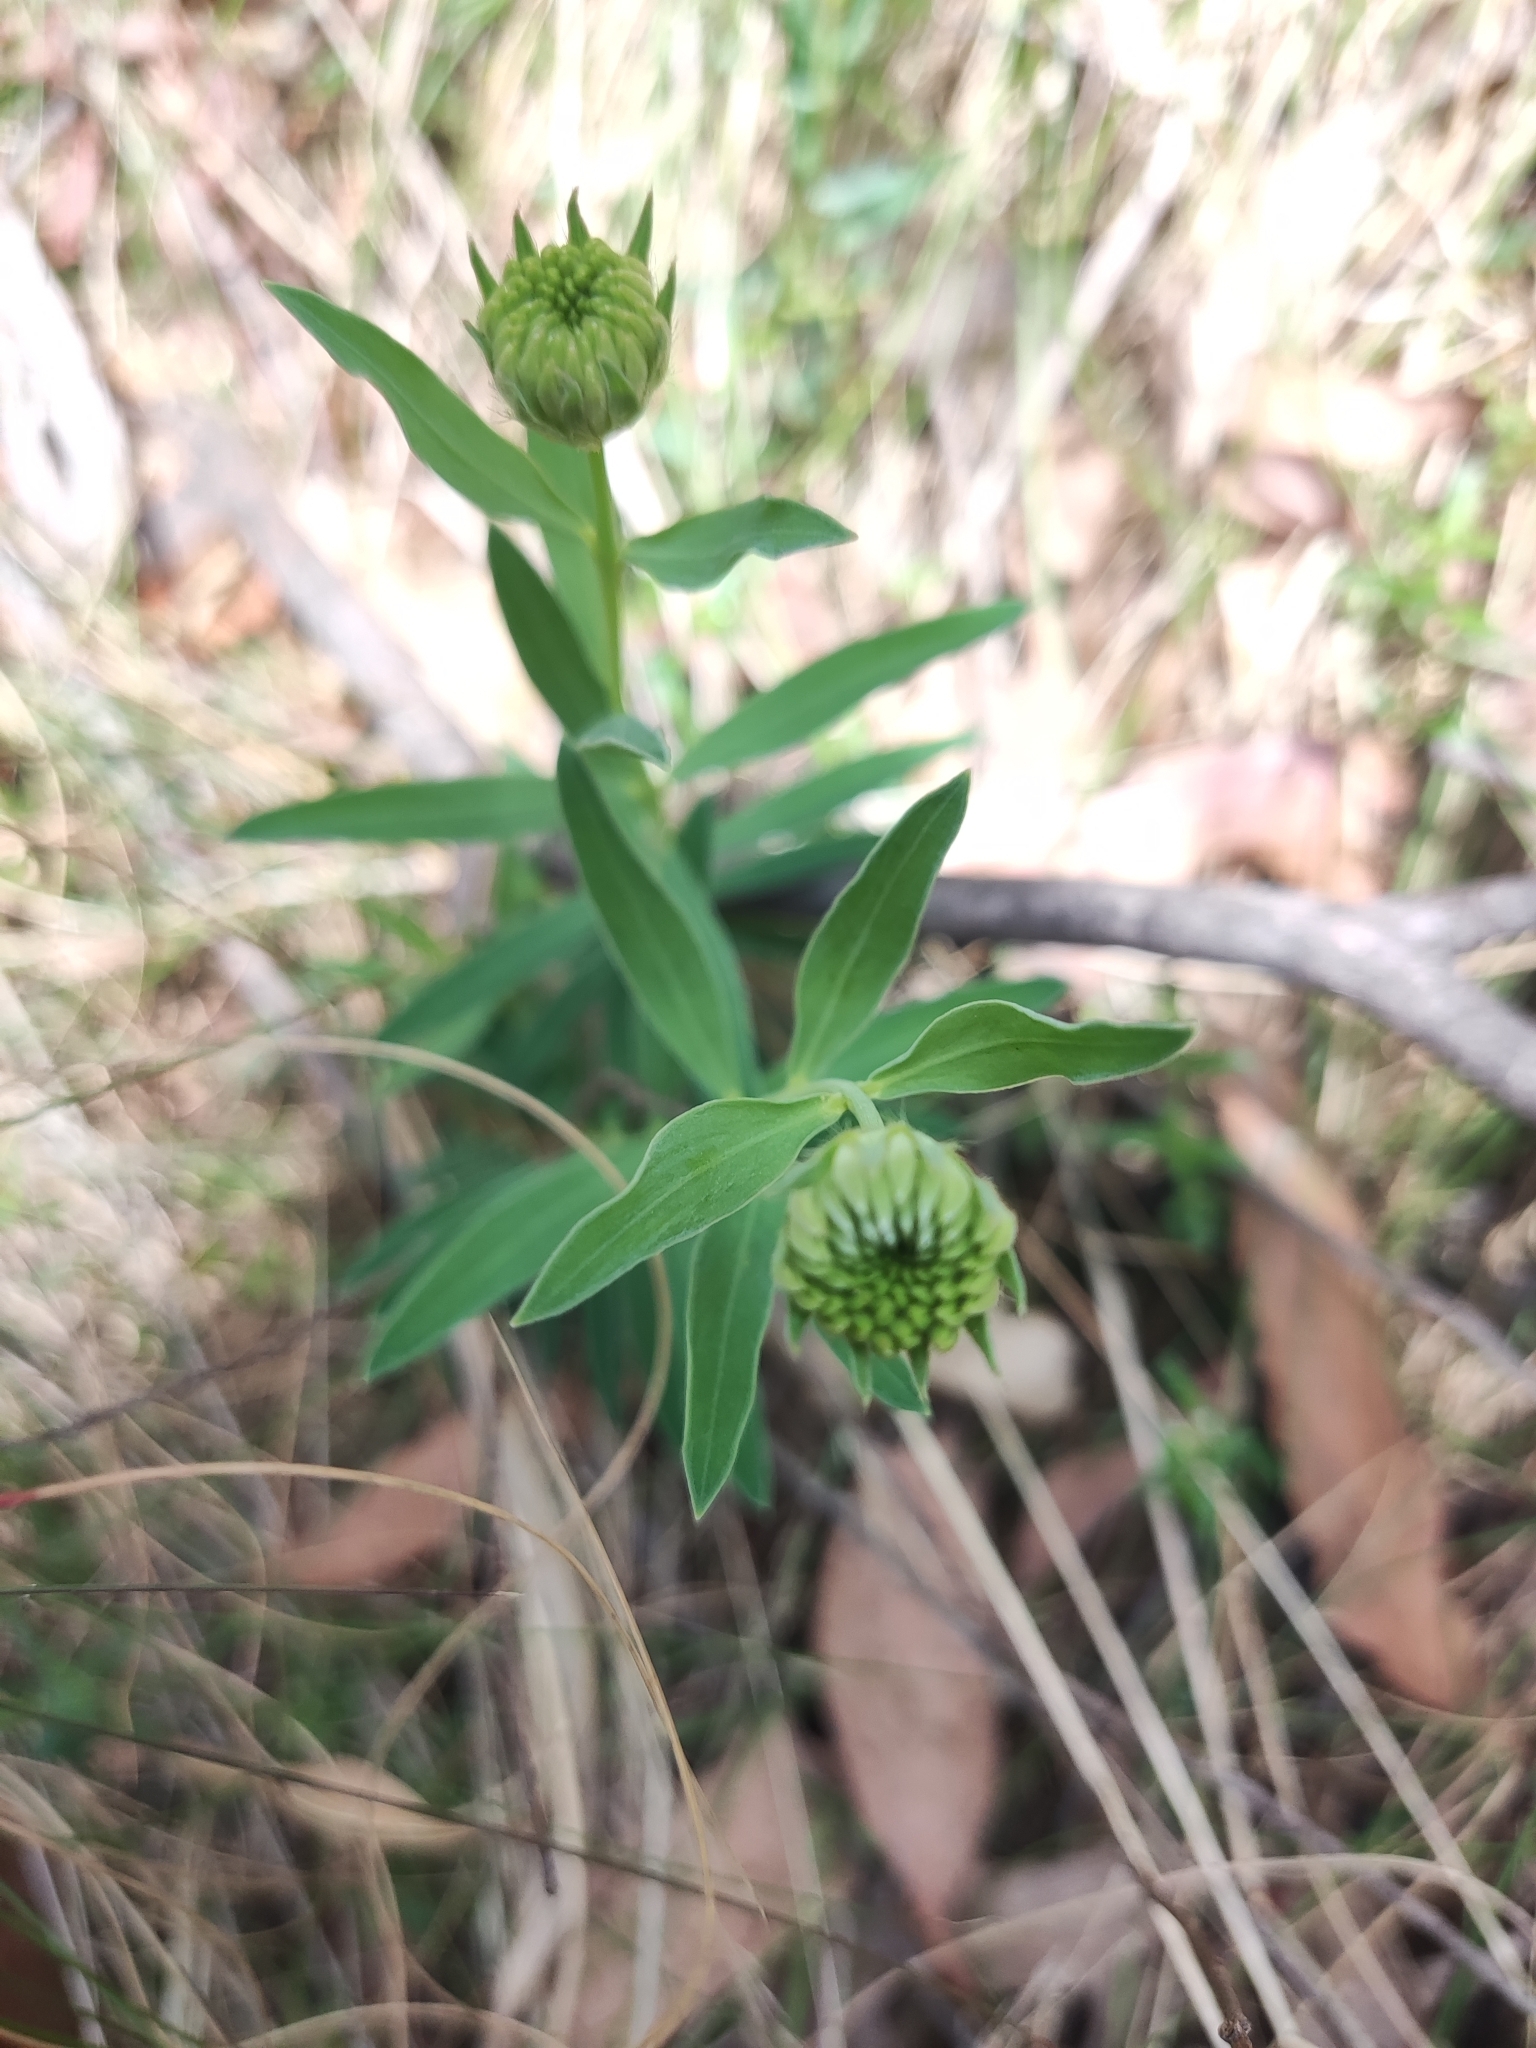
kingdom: Plantae
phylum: Tracheophyta
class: Magnoliopsida
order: Malvales
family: Thymelaeaceae
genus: Pimelea
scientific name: Pimelea treyvaudii
